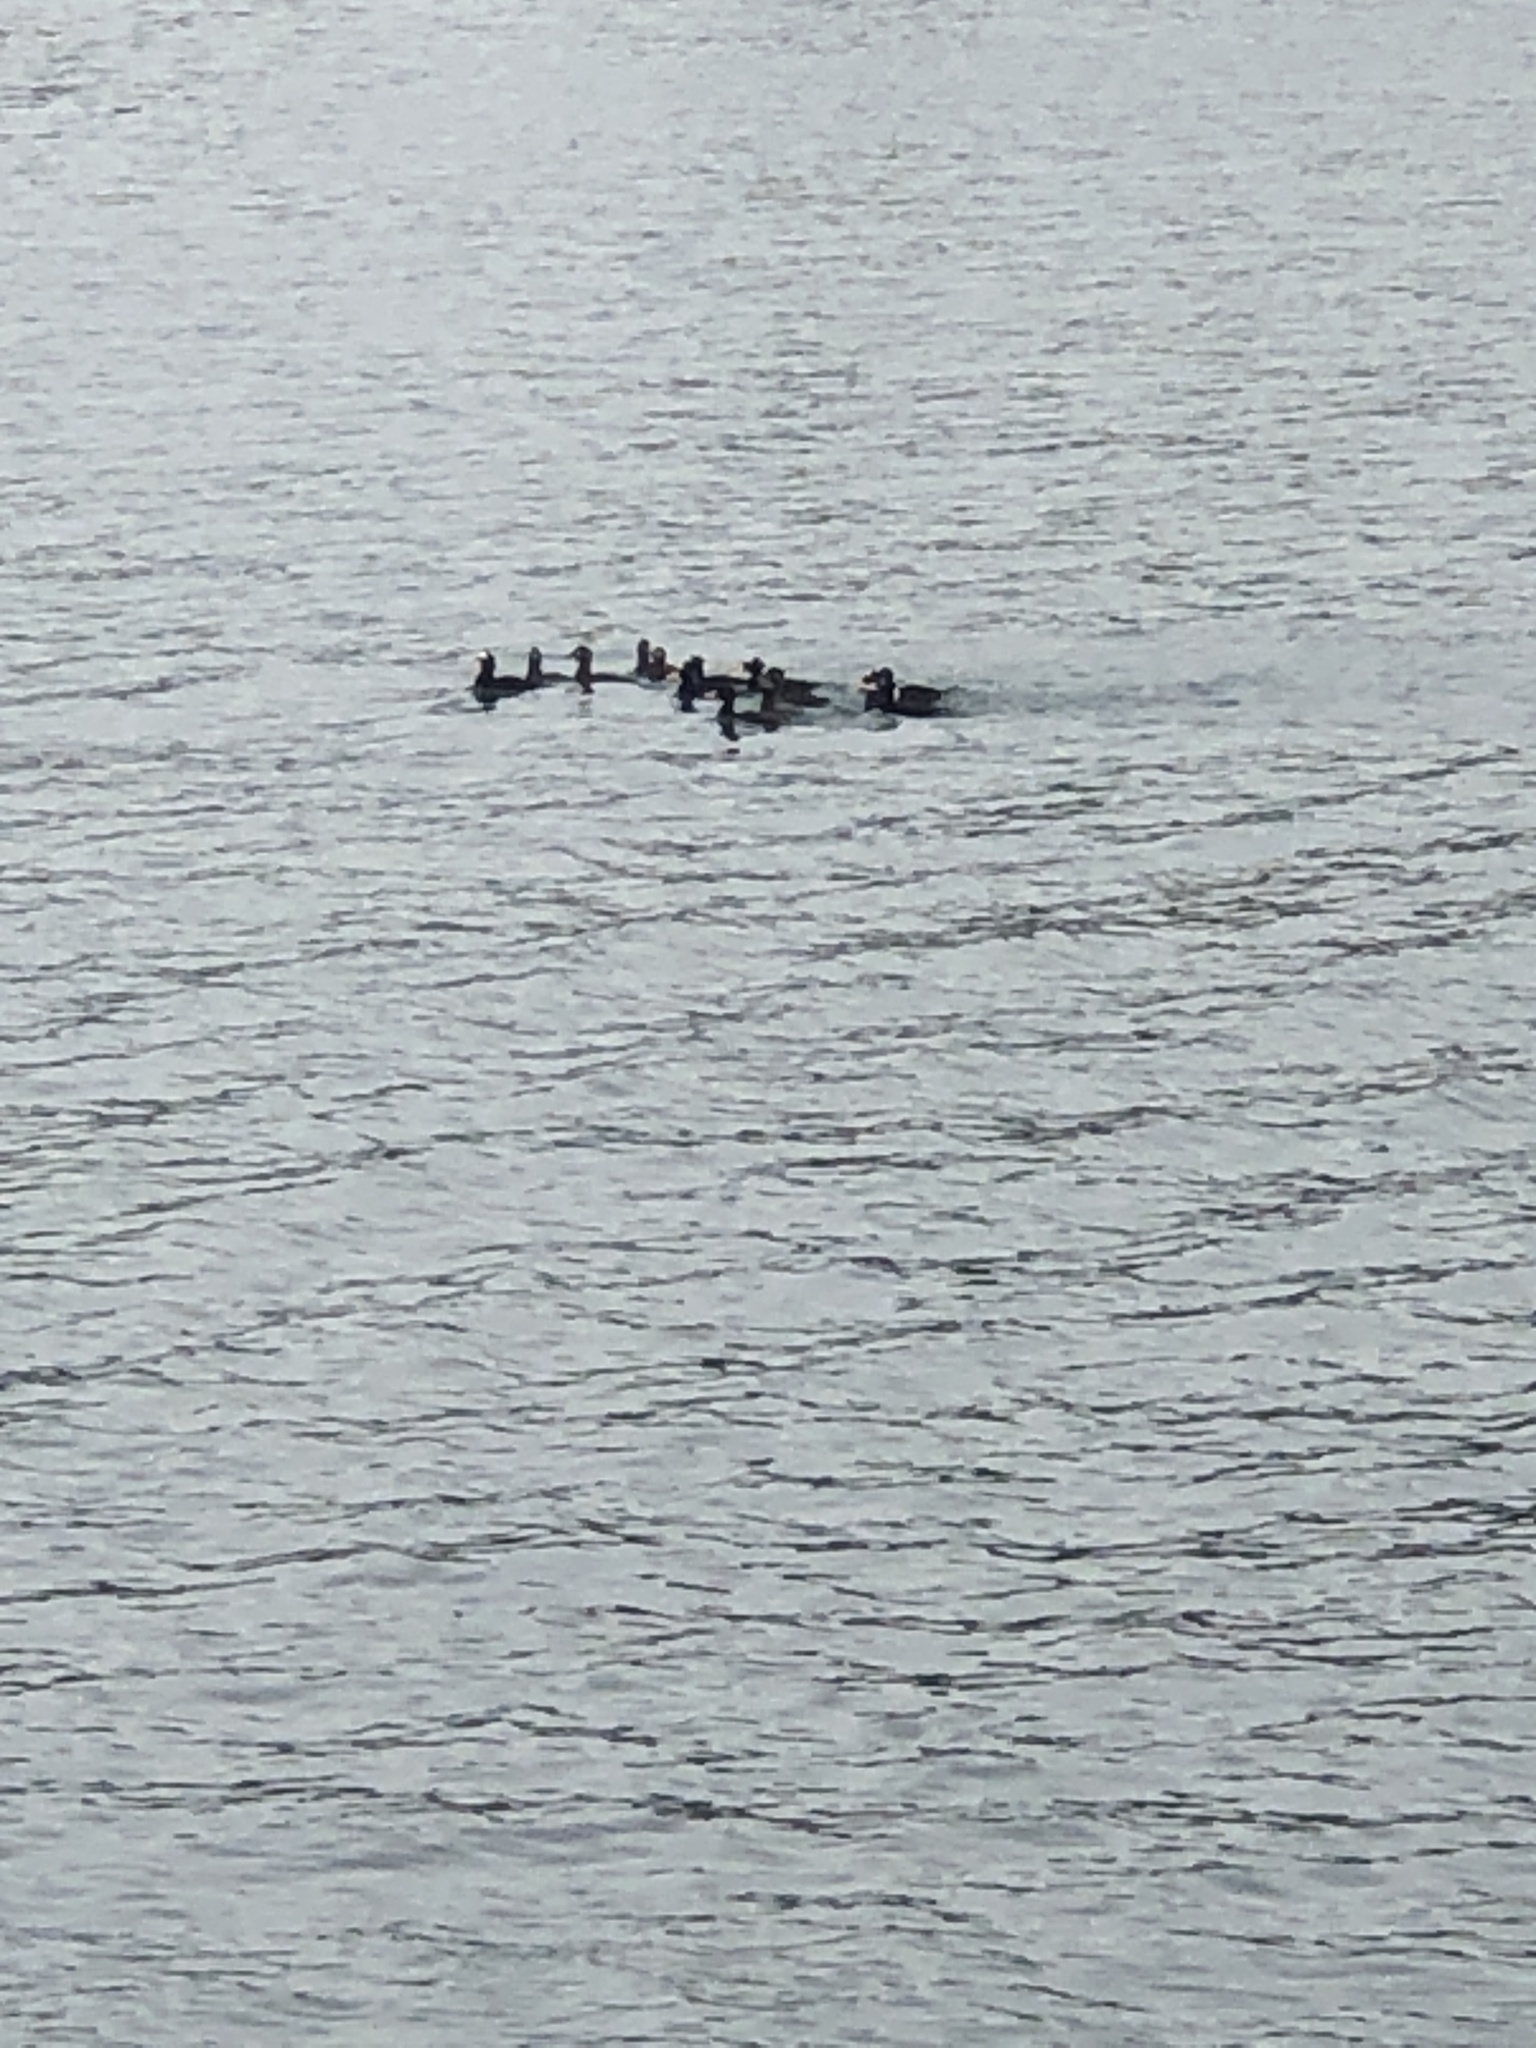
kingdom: Animalia
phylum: Chordata
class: Aves
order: Anseriformes
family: Anatidae
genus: Melanitta
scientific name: Melanitta perspicillata
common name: Surf scoter
